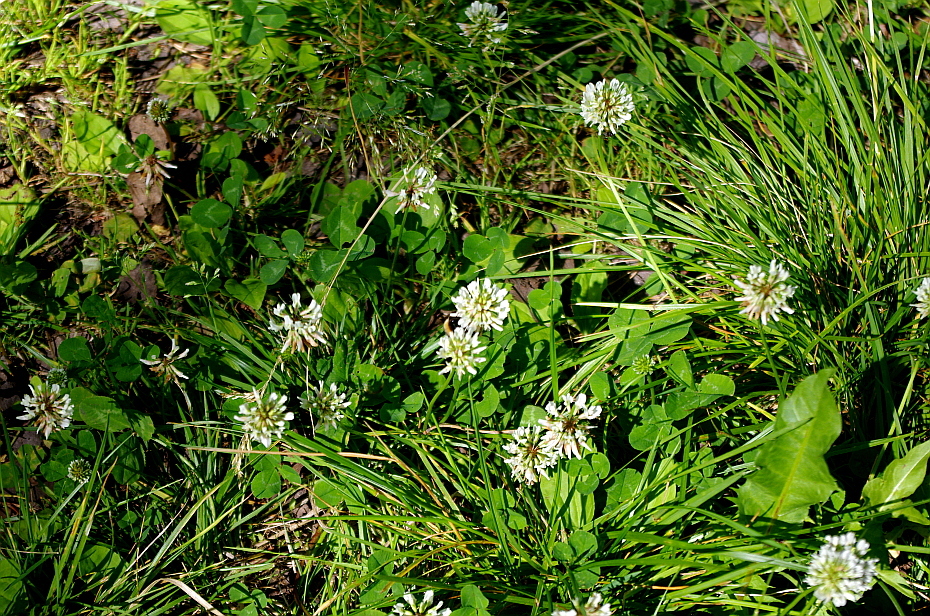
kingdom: Plantae
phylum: Tracheophyta
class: Magnoliopsida
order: Fabales
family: Fabaceae
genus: Trifolium
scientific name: Trifolium repens
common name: White clover
